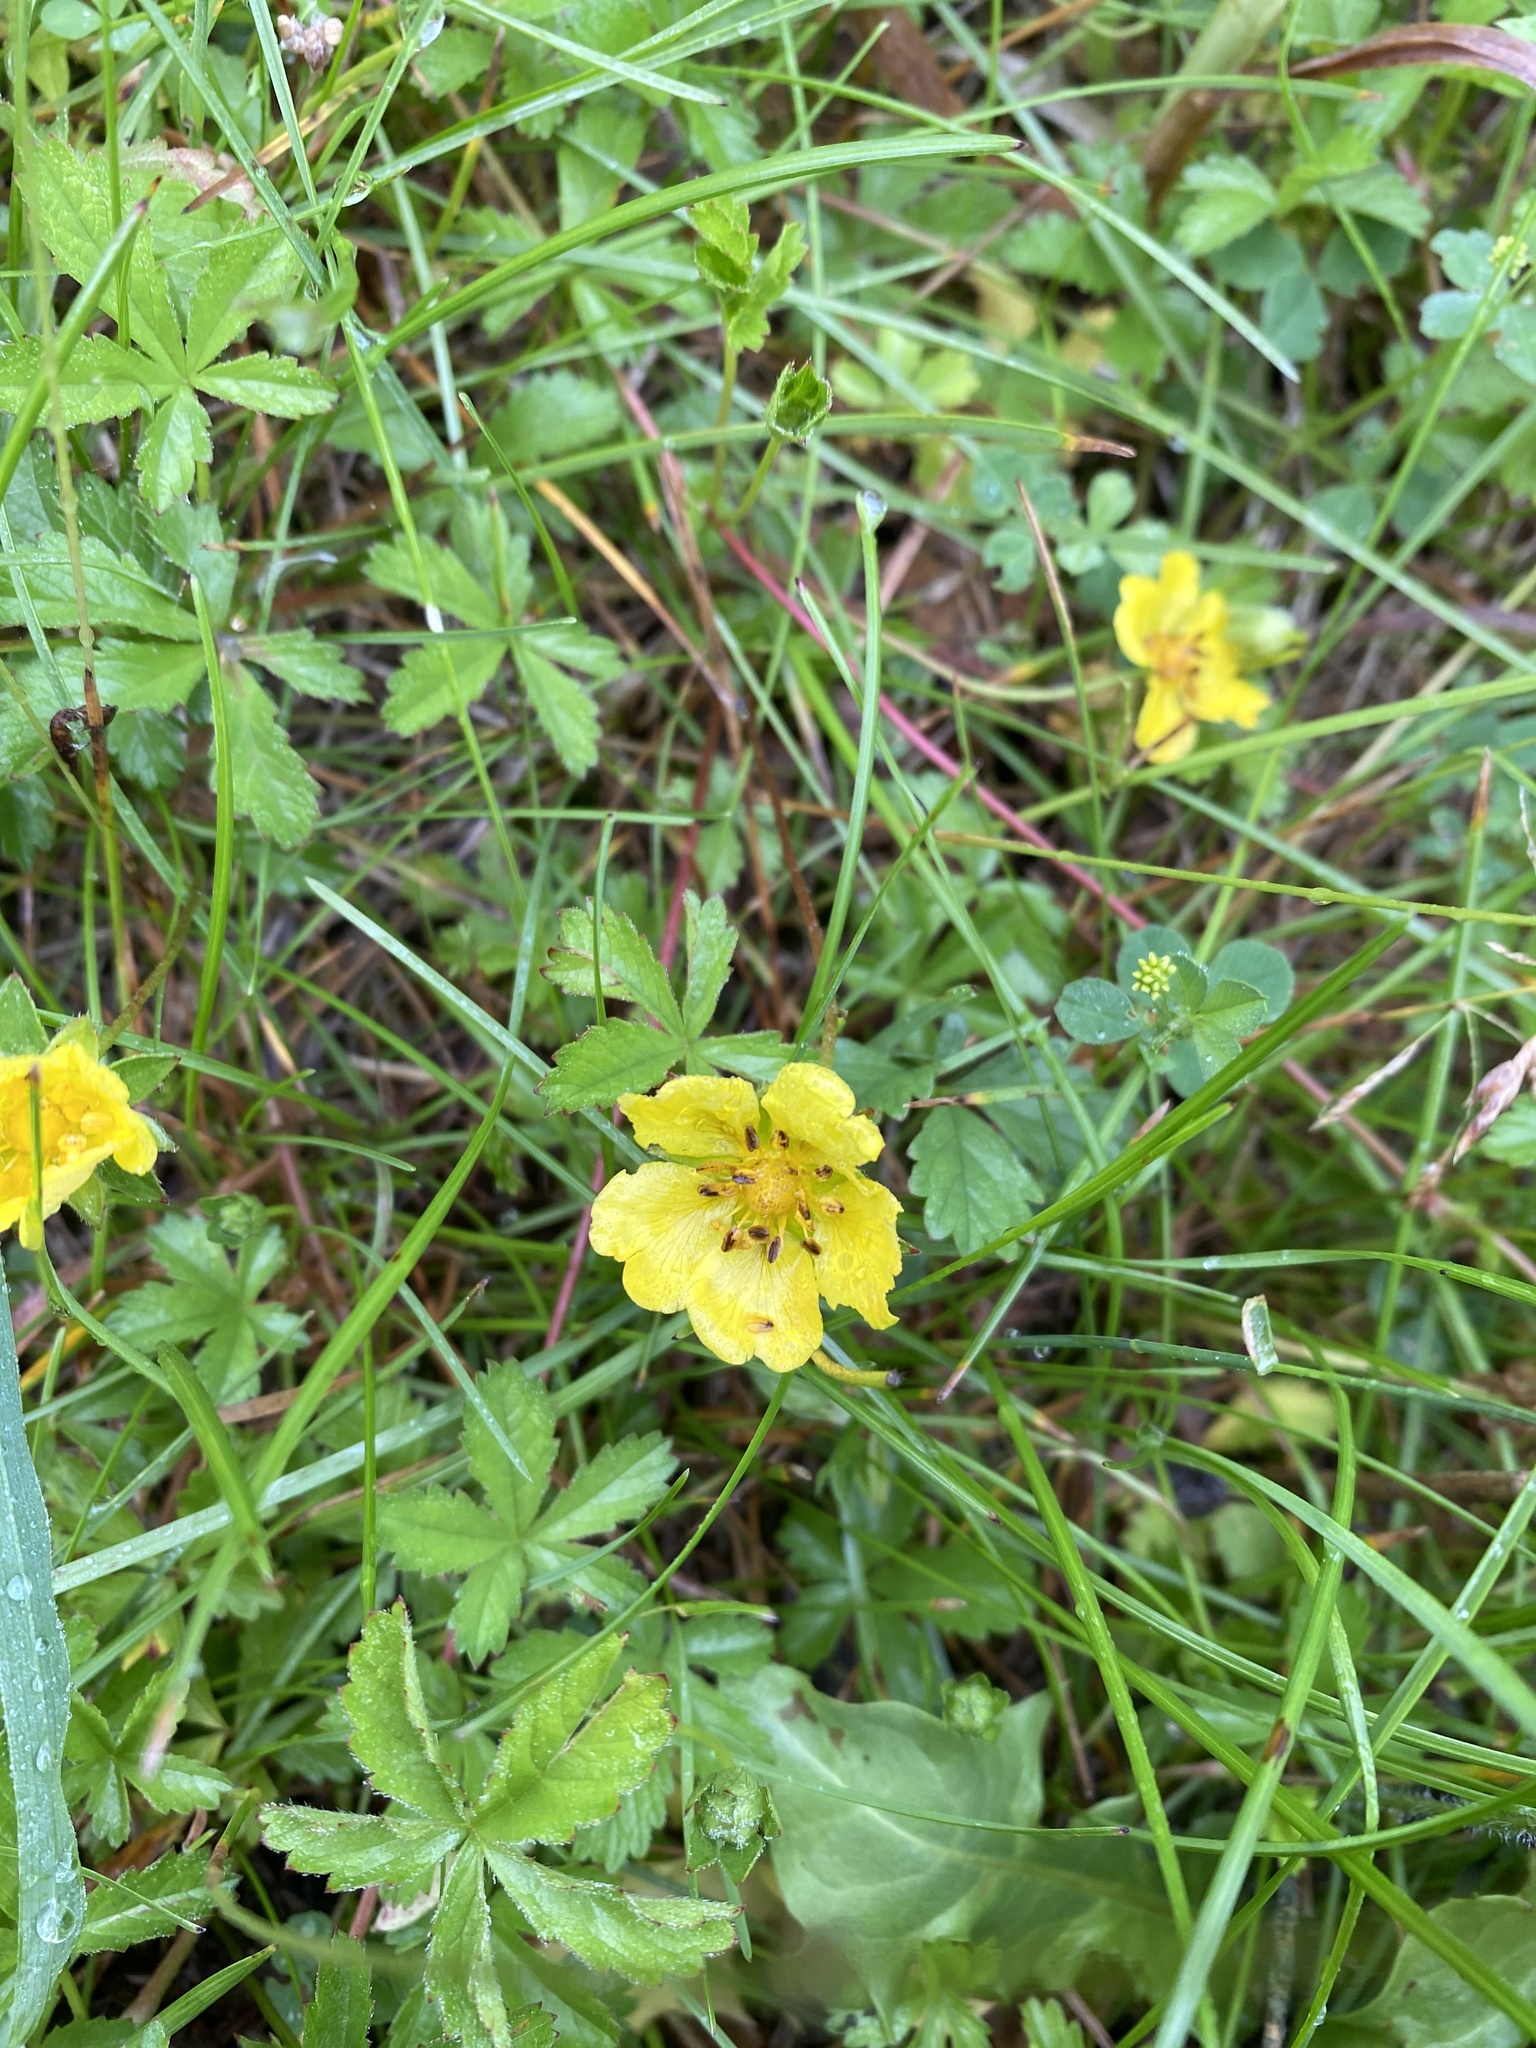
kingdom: Plantae
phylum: Tracheophyta
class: Magnoliopsida
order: Rosales
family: Rosaceae
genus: Potentilla
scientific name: Potentilla reptans
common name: Creeping cinquefoil
